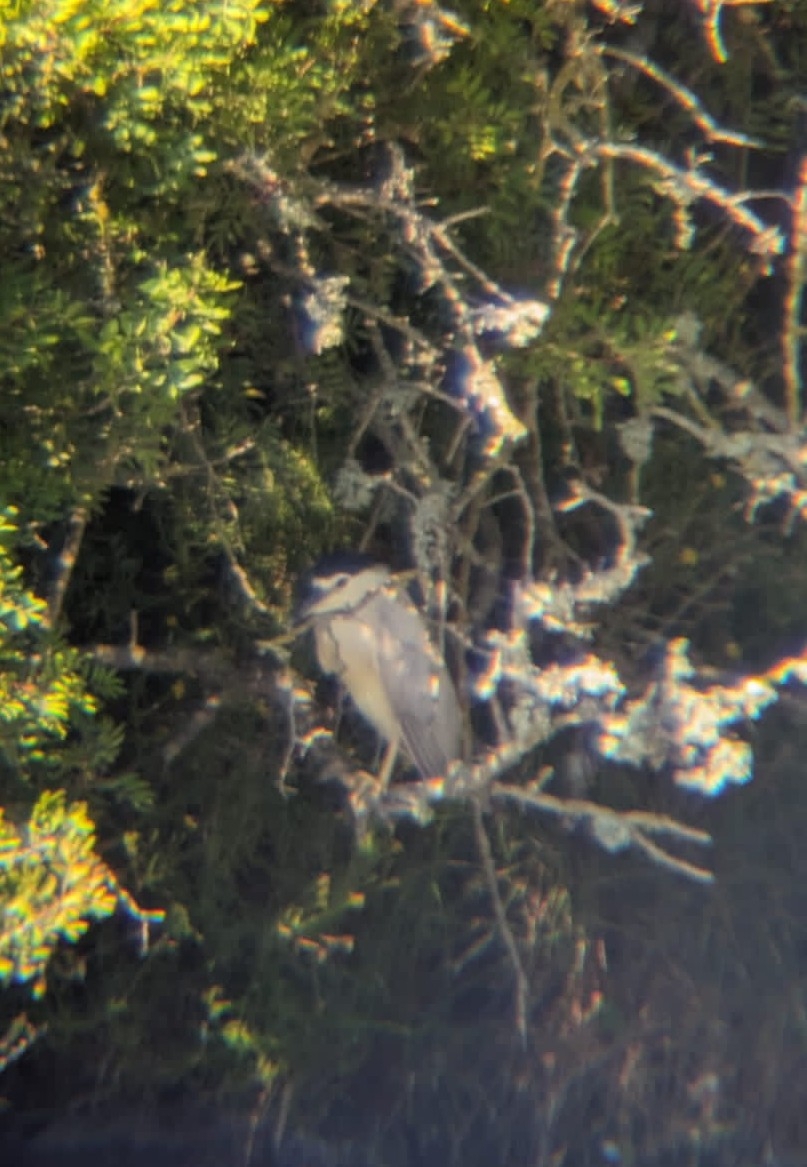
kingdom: Animalia
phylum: Chordata
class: Aves
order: Pelecaniformes
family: Ardeidae
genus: Nycticorax
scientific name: Nycticorax nycticorax
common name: Black-crowned night heron
